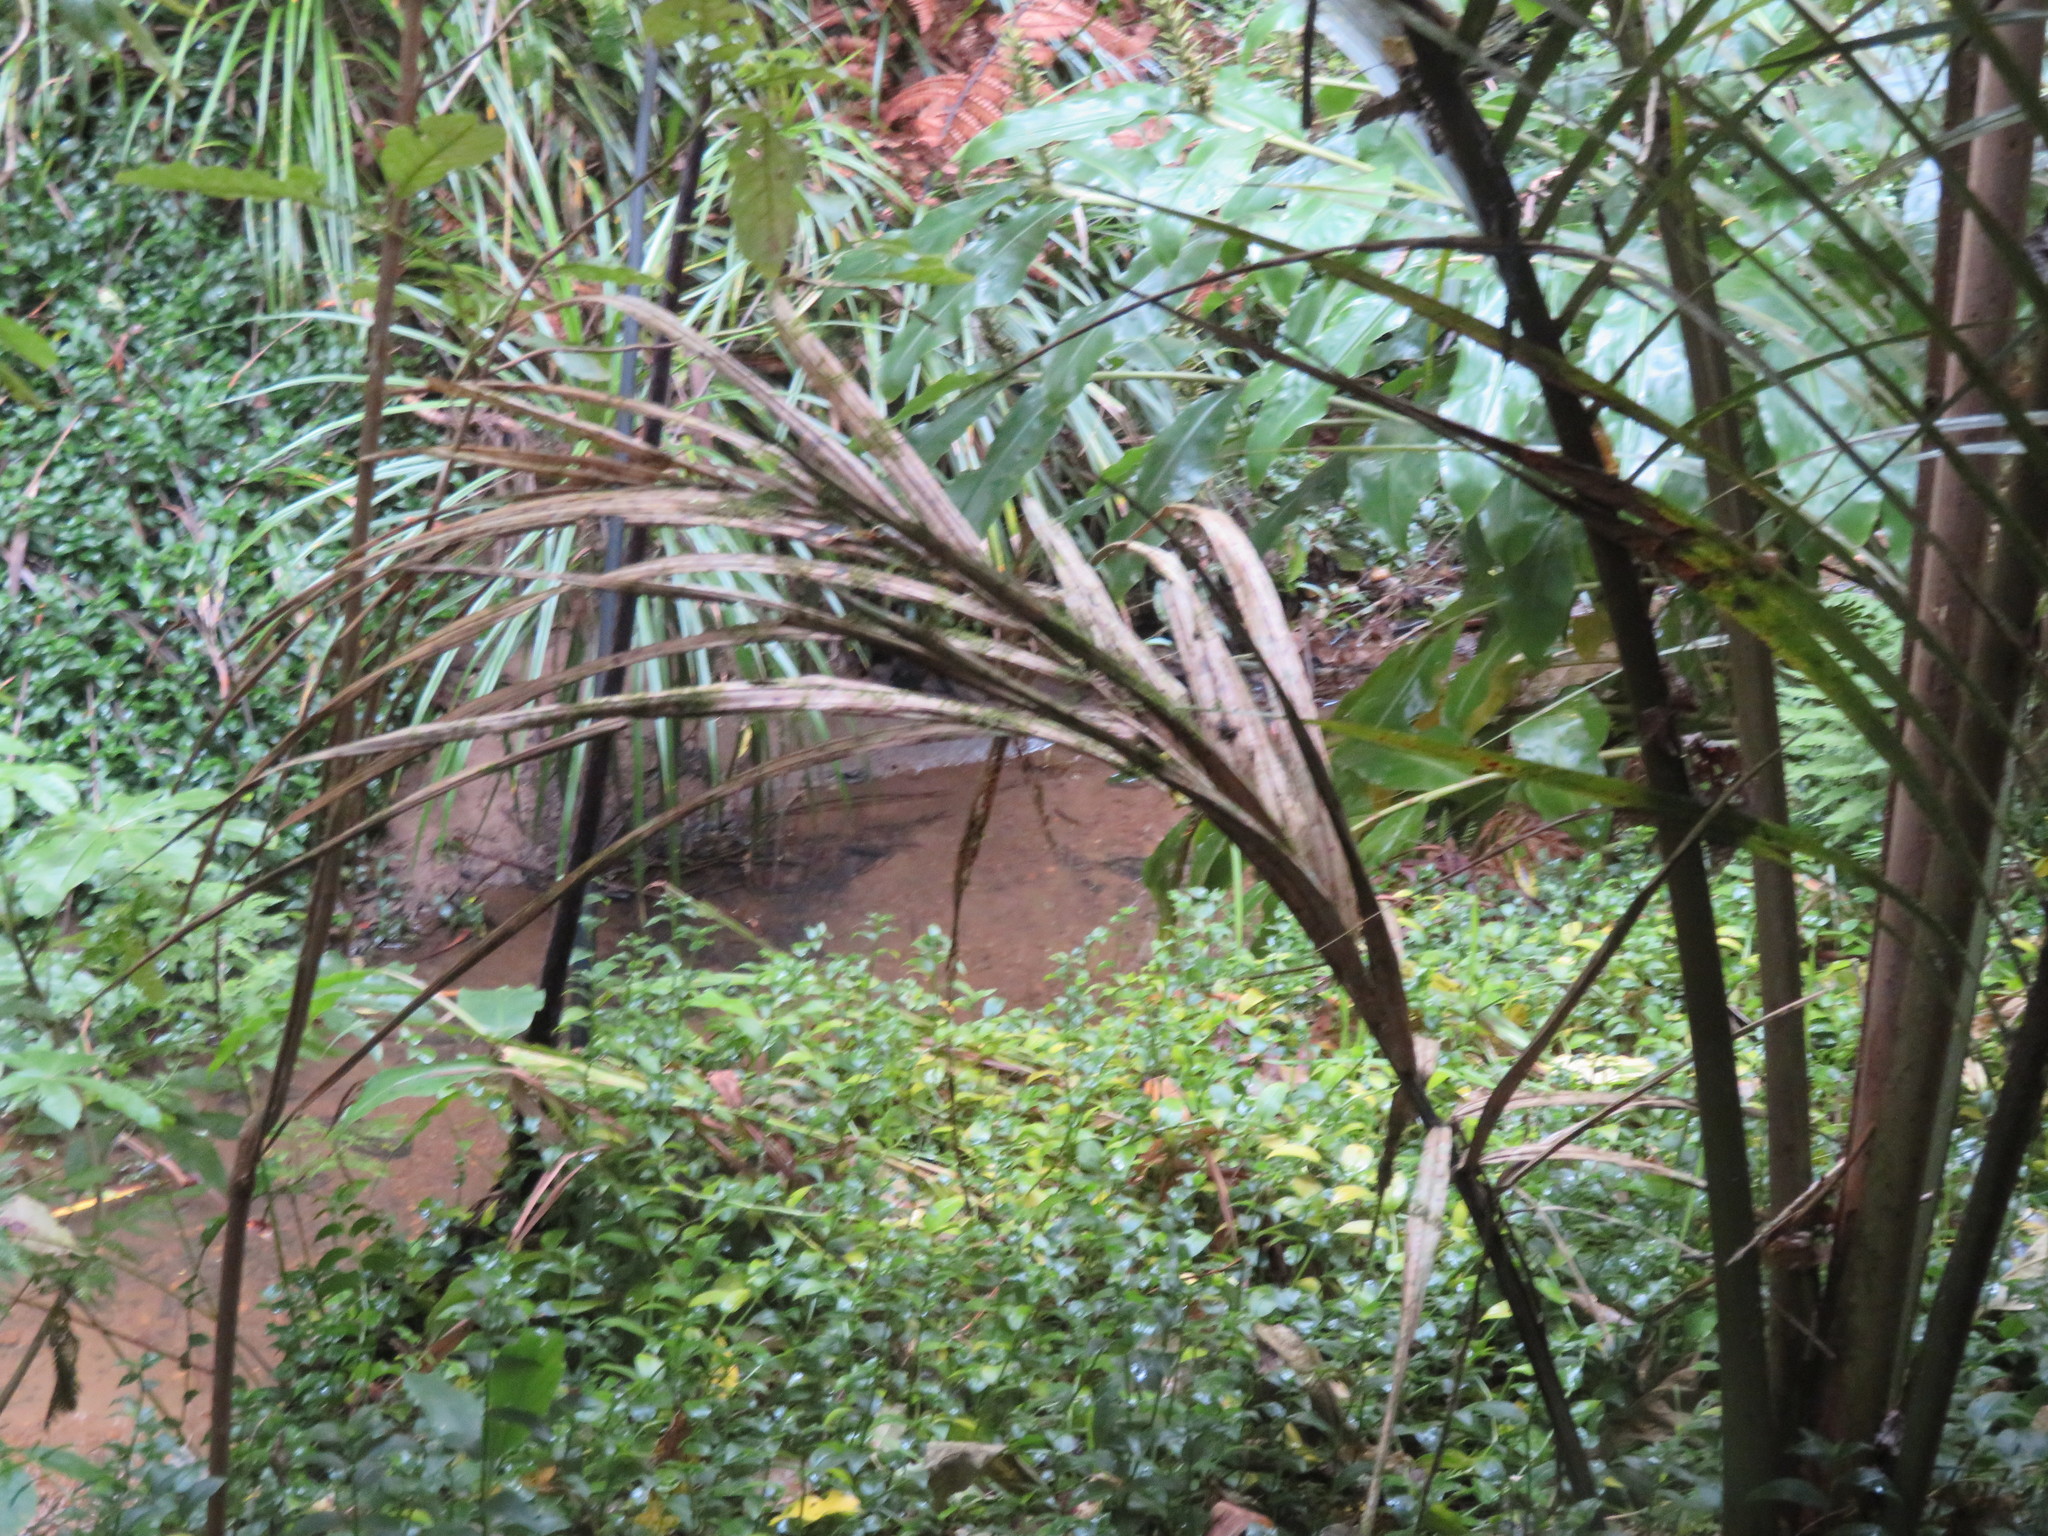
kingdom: Plantae
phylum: Tracheophyta
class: Liliopsida
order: Arecales
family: Arecaceae
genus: Rhopalostylis
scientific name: Rhopalostylis sapida
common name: Feather-duster palm
